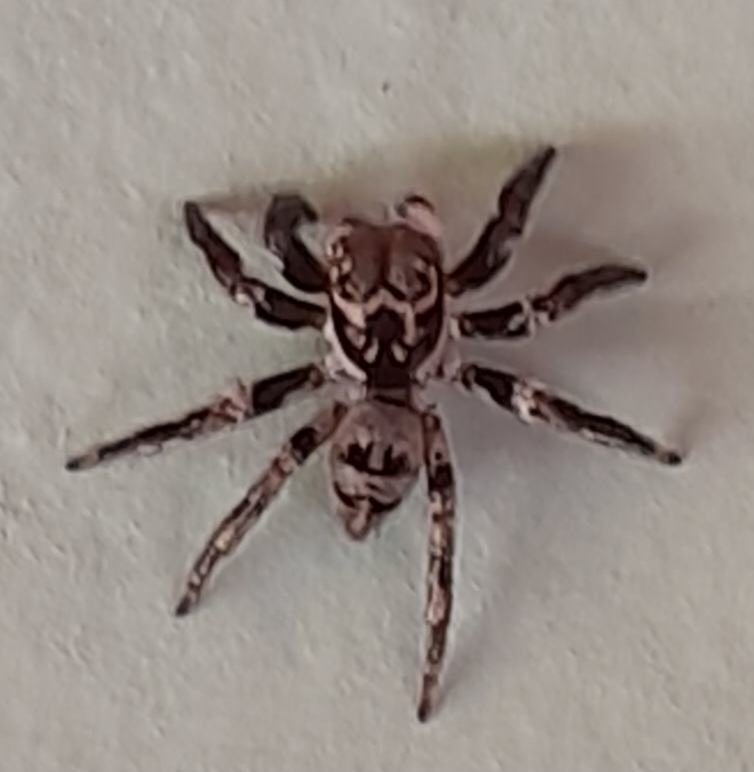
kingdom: Animalia
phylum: Arthropoda
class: Arachnida
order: Araneae
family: Salticidae
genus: Corythalia
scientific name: Corythalia conferta
